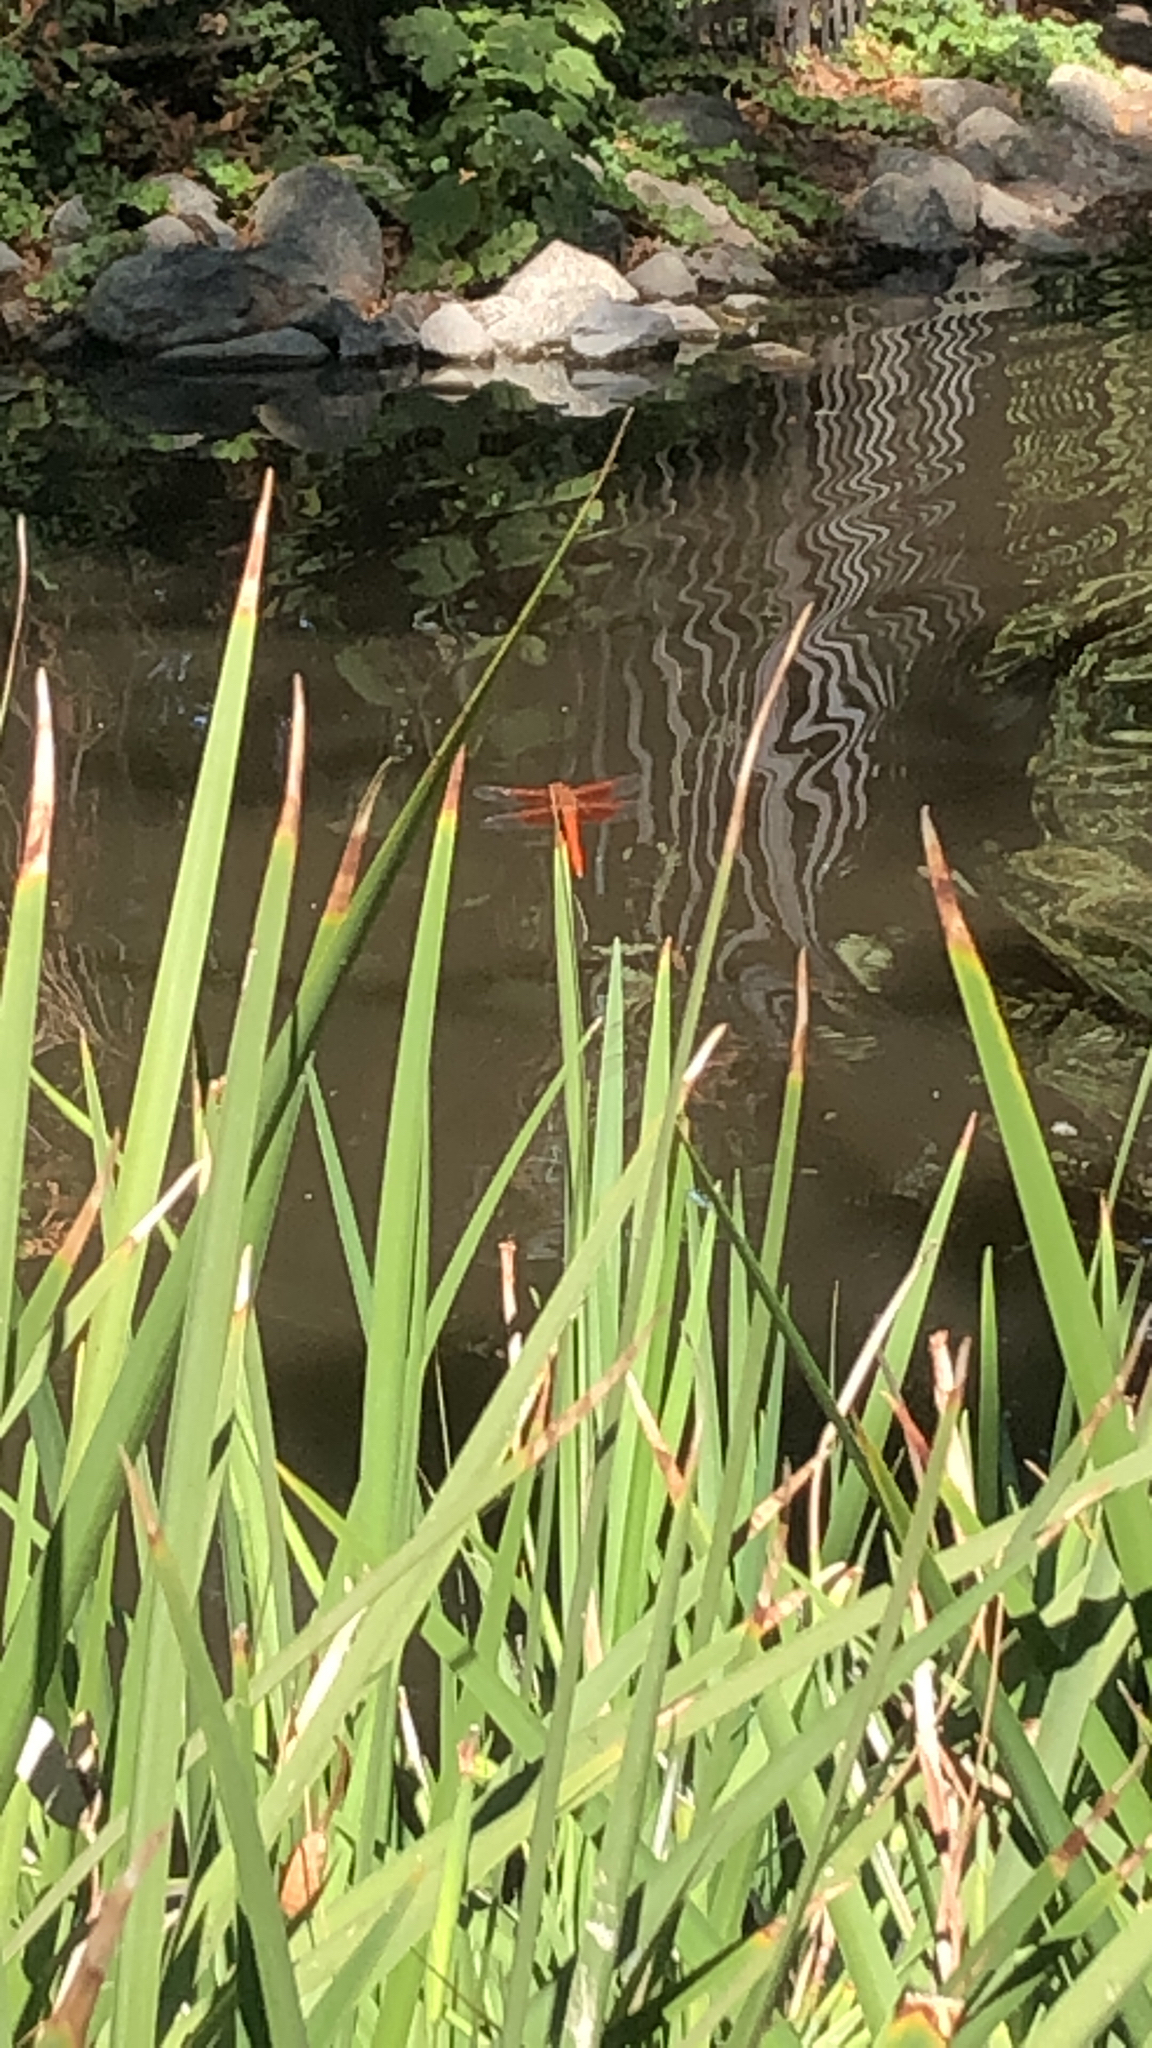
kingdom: Animalia
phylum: Arthropoda
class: Insecta
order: Odonata
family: Libellulidae
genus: Libellula
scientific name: Libellula saturata
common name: Flame skimmer
